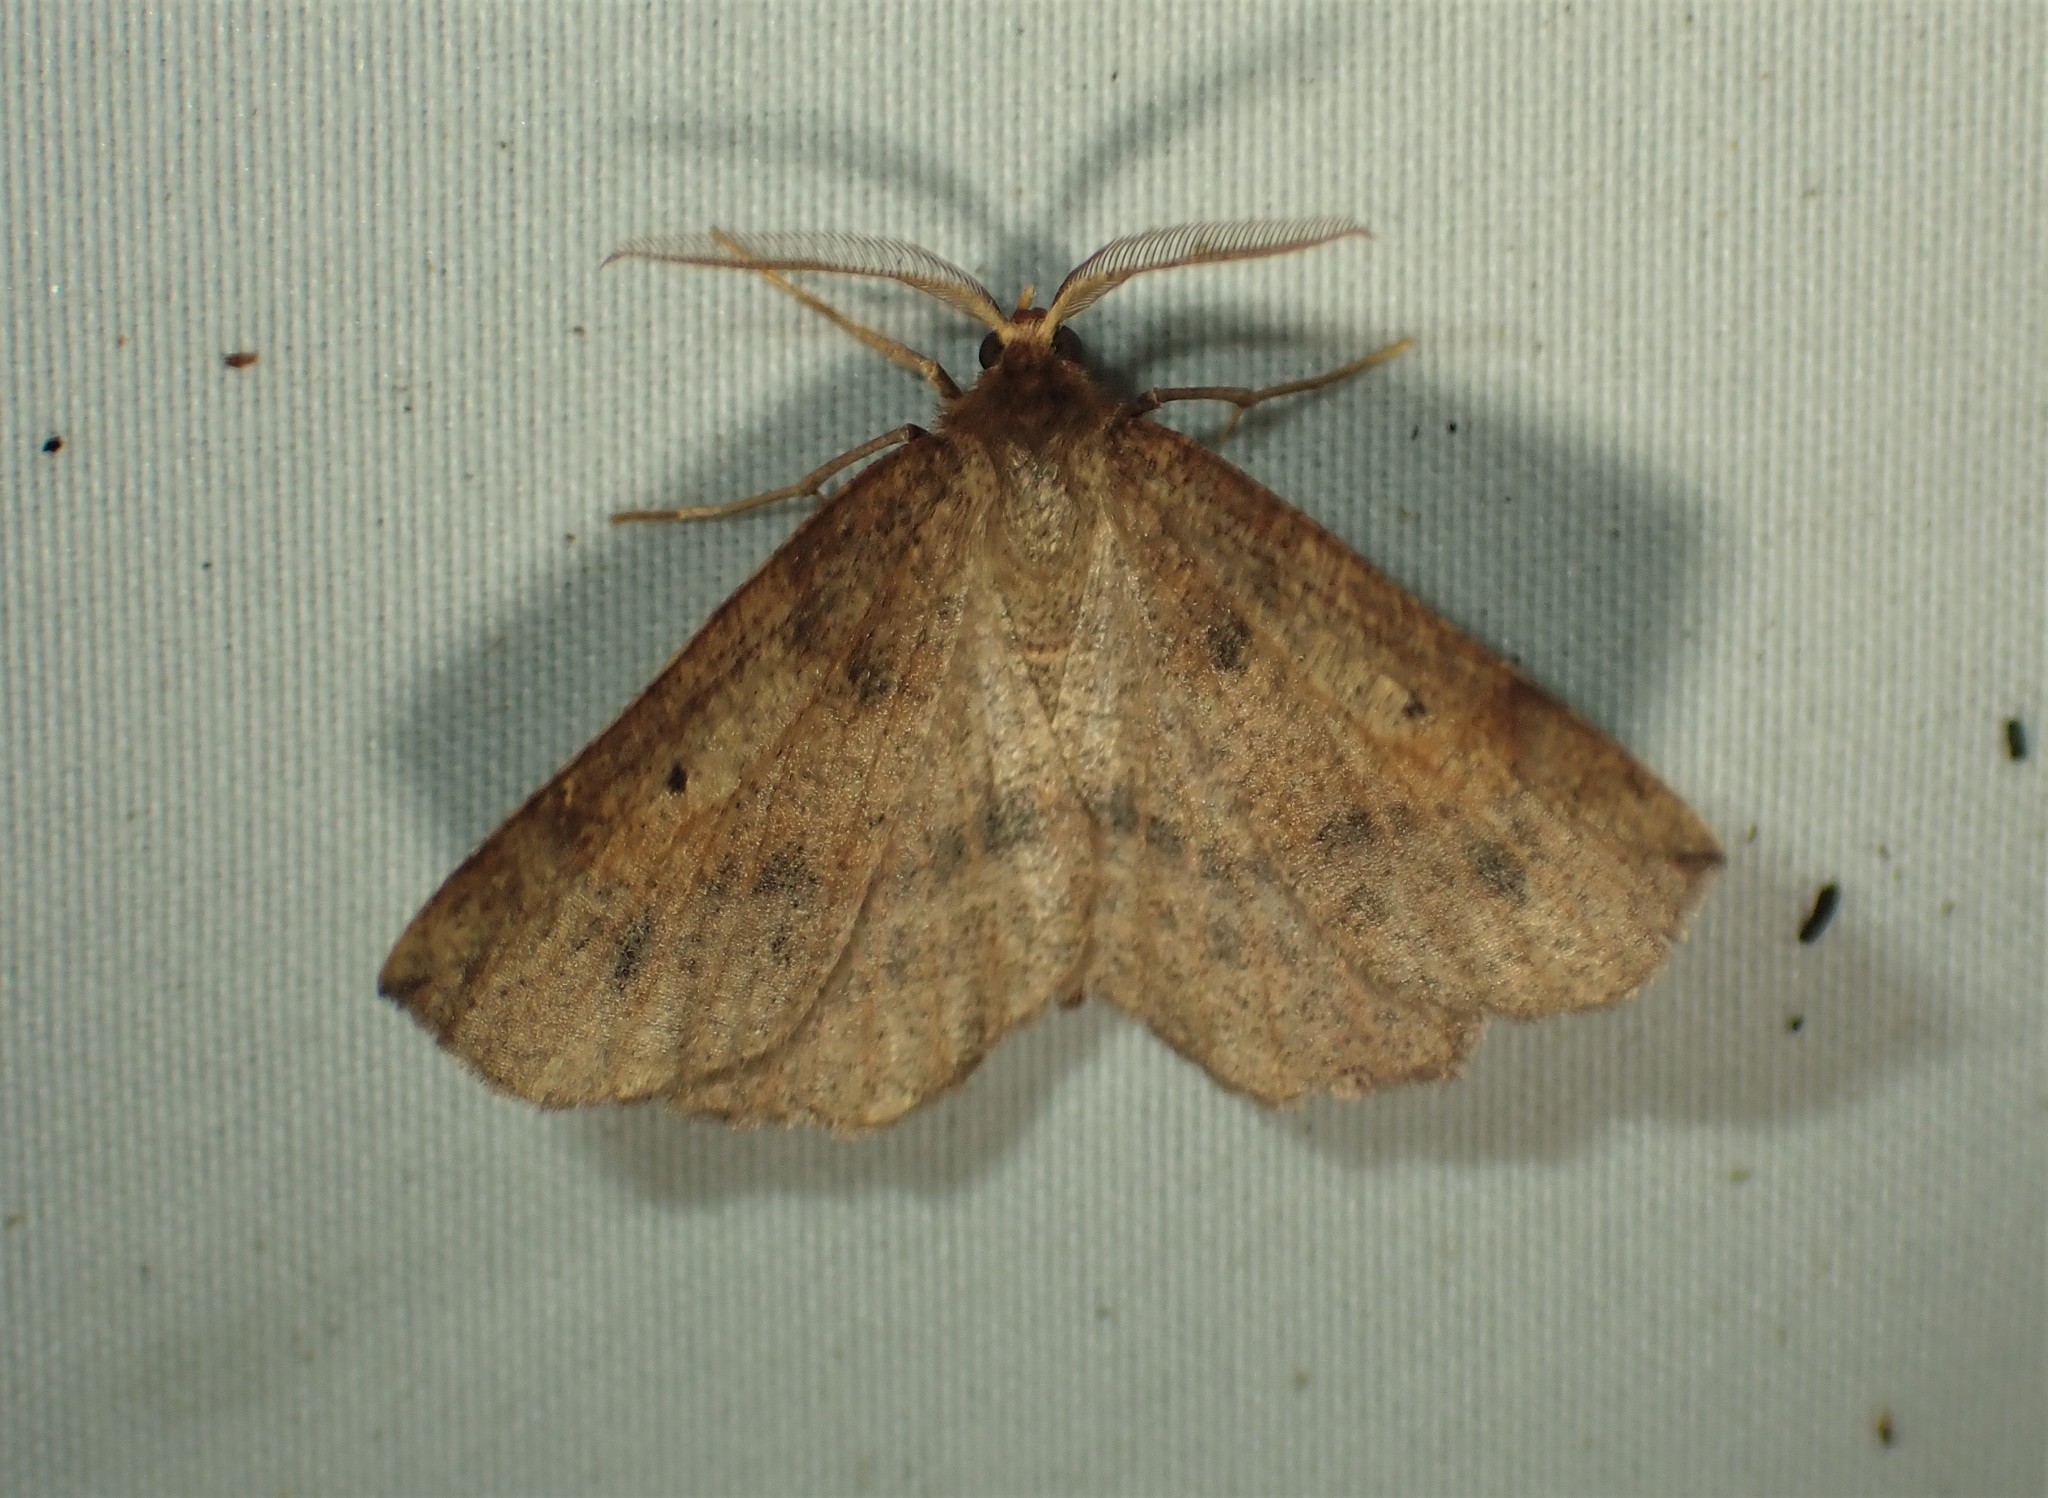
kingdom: Animalia
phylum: Arthropoda
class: Insecta
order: Lepidoptera
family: Geometridae
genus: Metarranthis
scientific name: Metarranthis duaria
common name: Ruddy metarranthis moth
